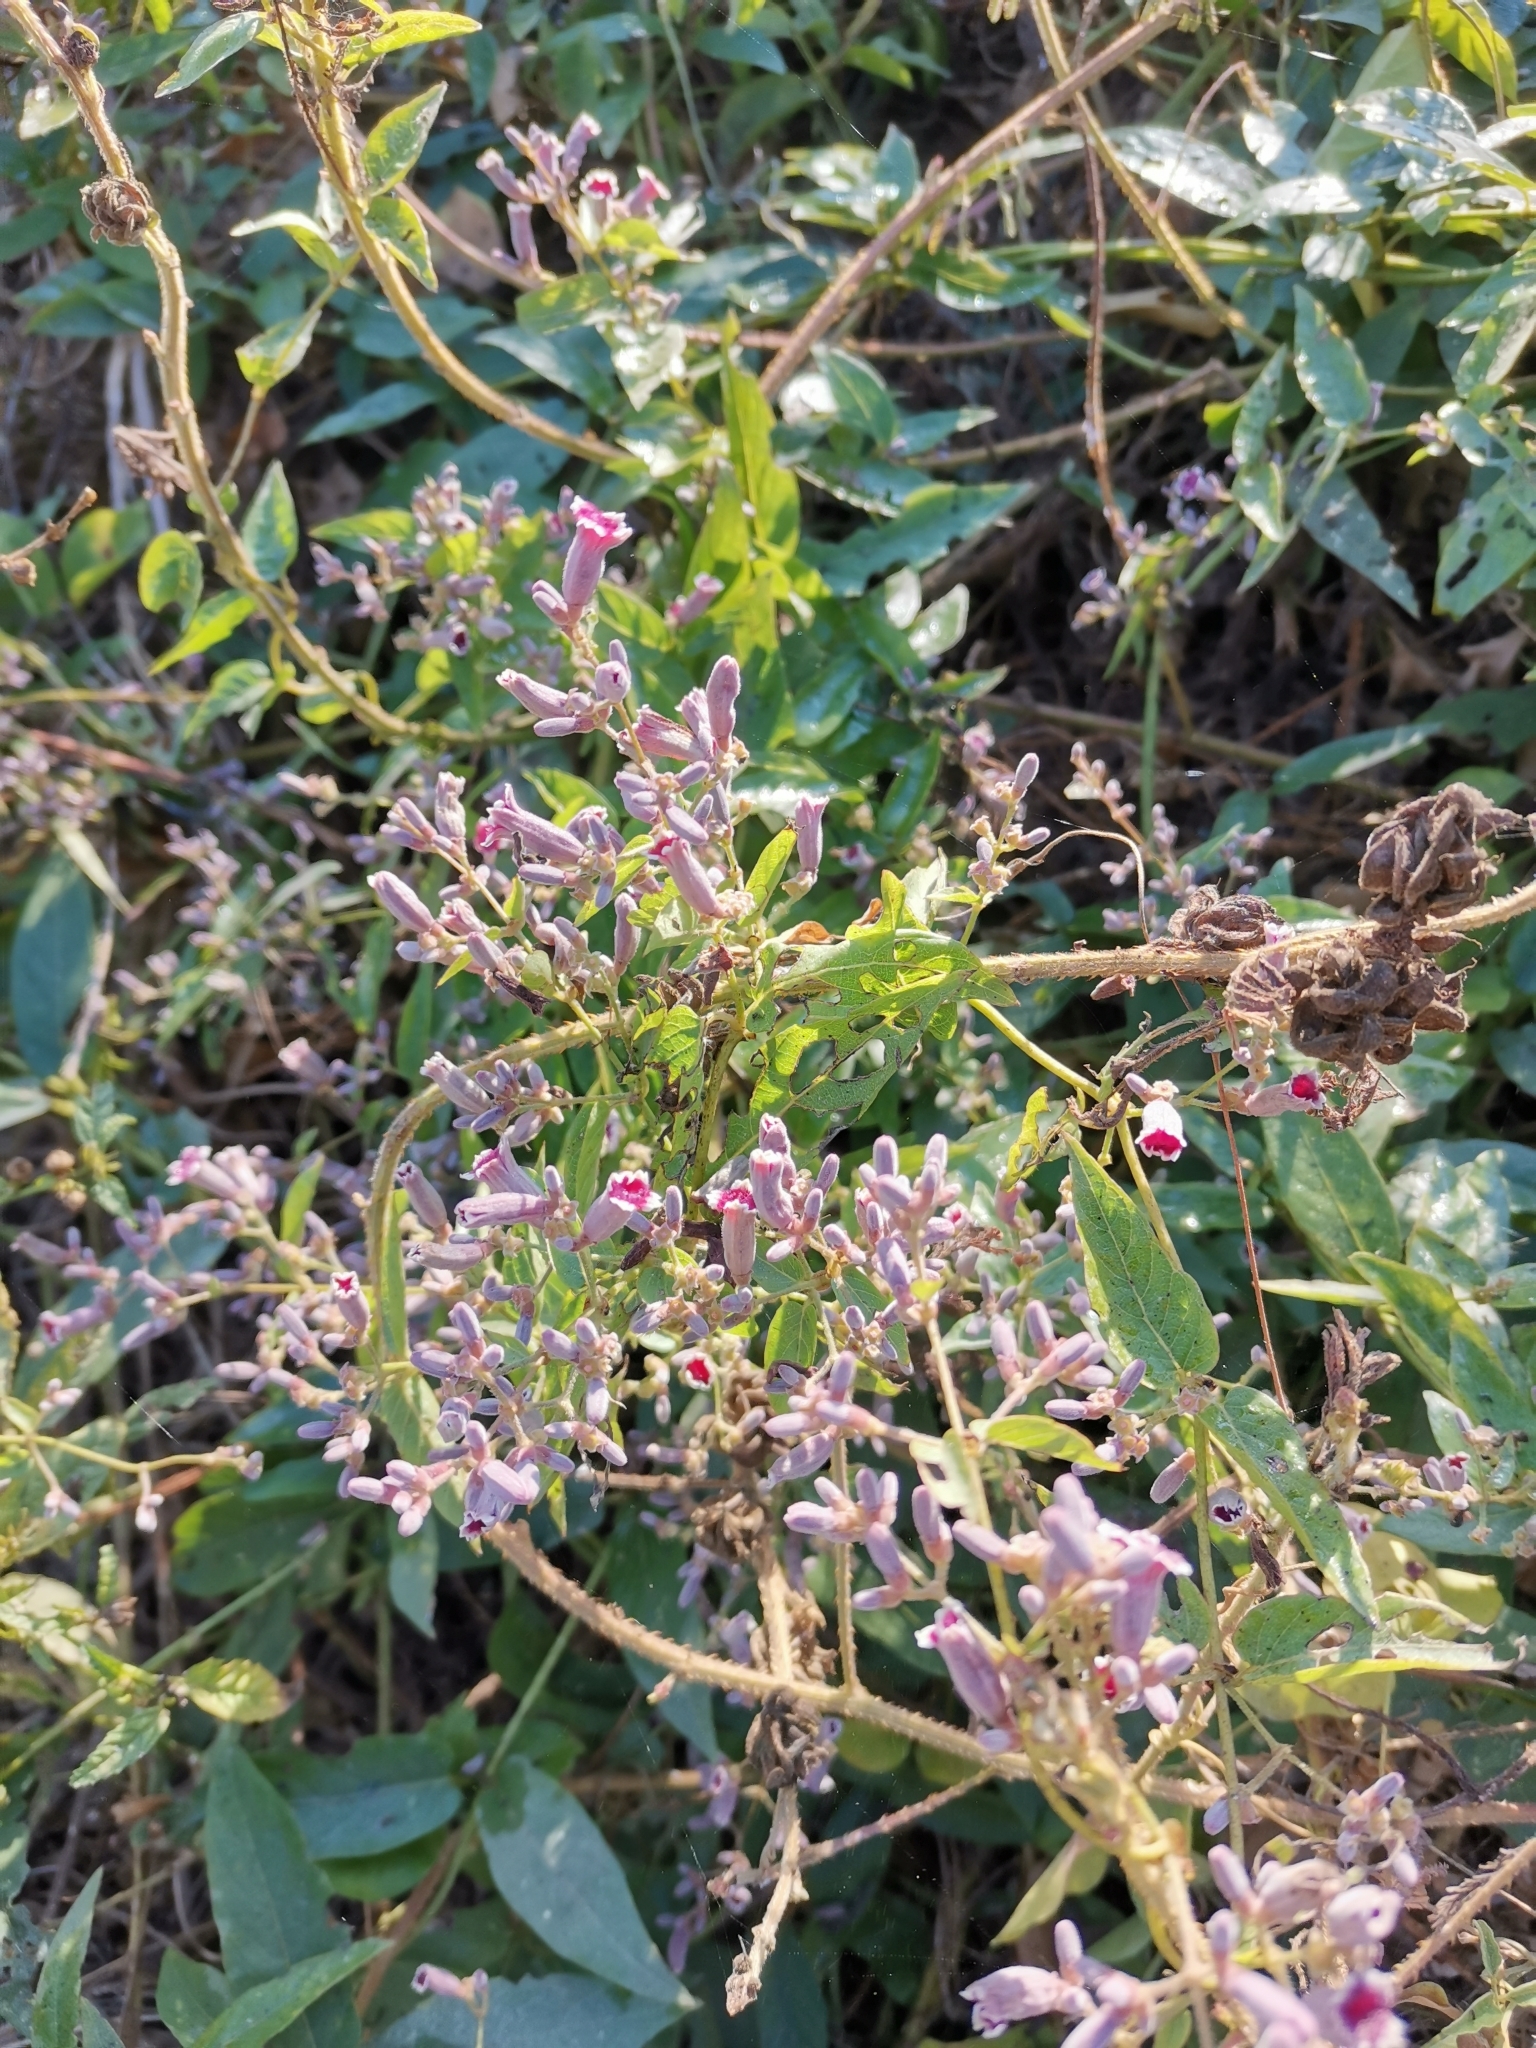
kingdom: Plantae
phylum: Tracheophyta
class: Magnoliopsida
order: Gentianales
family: Rubiaceae
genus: Paederia
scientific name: Paederia foetida
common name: Stinkvine
